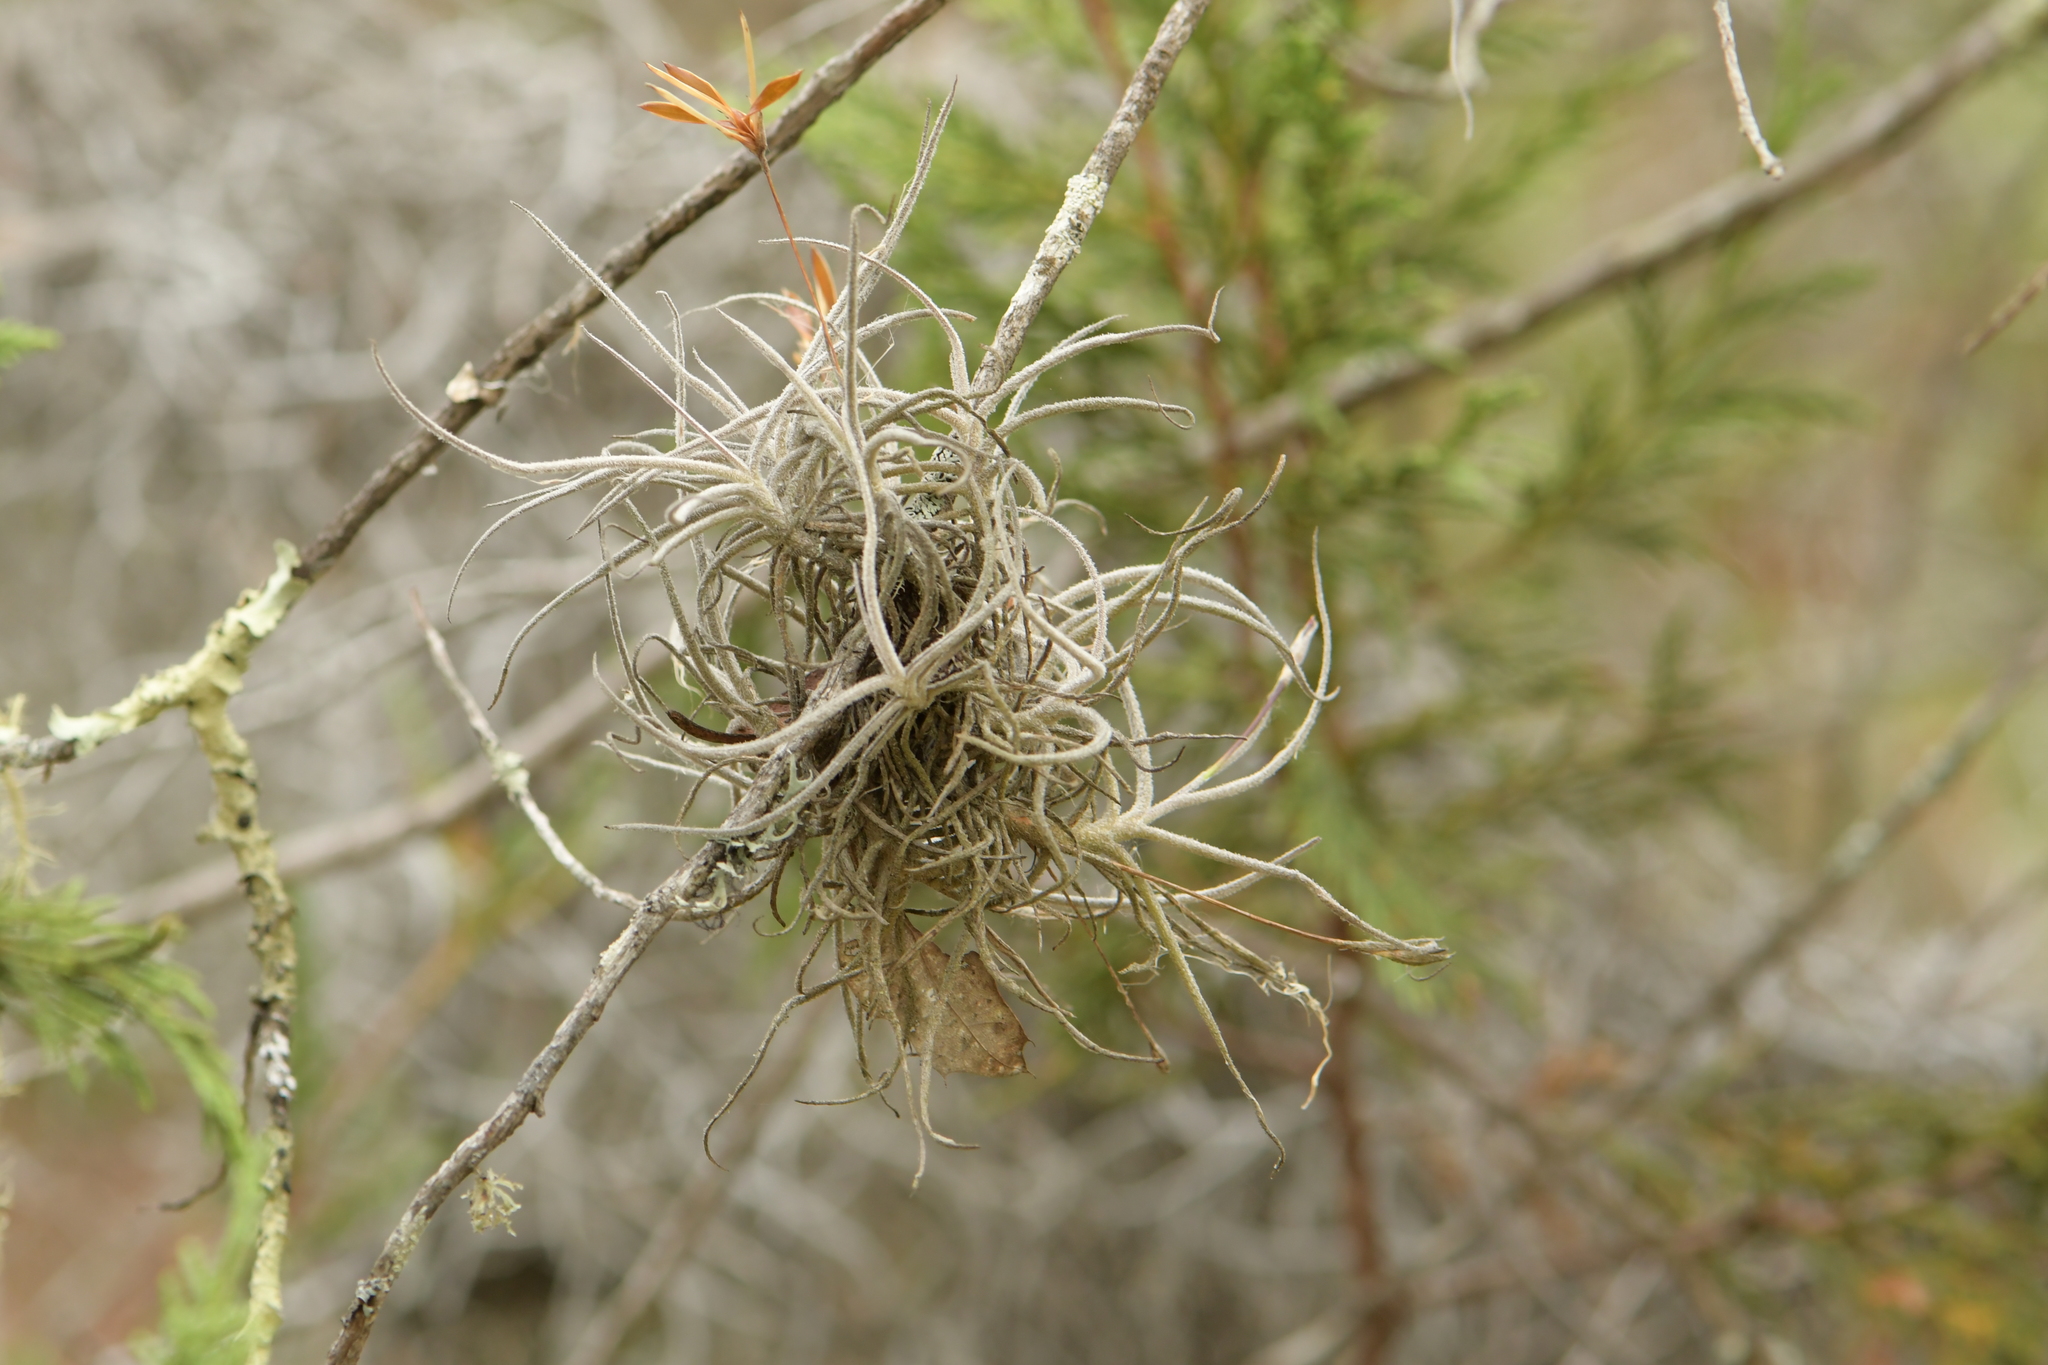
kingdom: Plantae
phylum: Tracheophyta
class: Liliopsida
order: Poales
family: Bromeliaceae
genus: Tillandsia
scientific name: Tillandsia recurvata
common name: Small ballmoss
